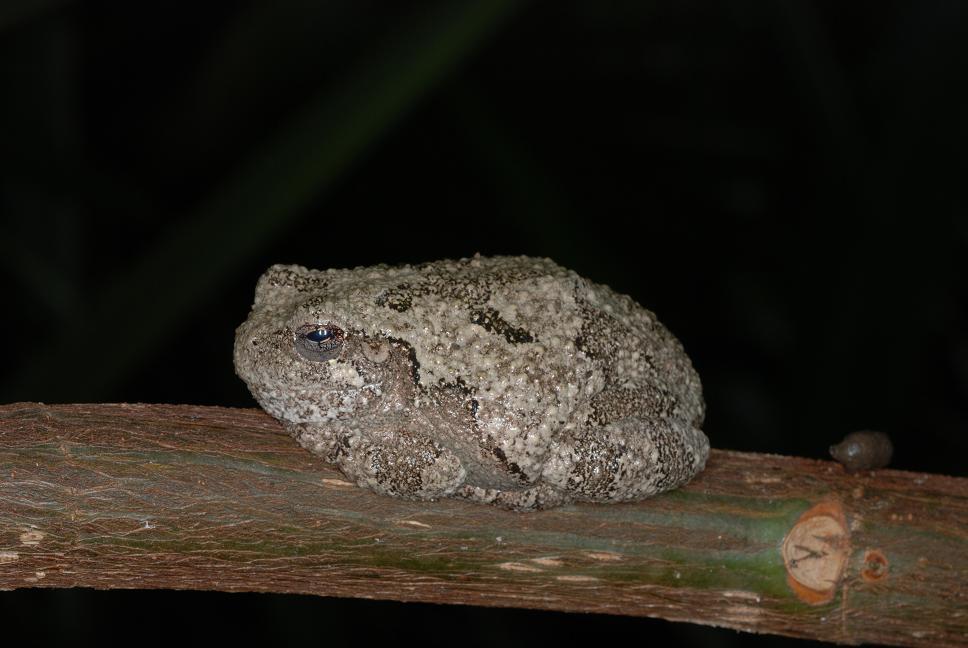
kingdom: Animalia
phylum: Chordata
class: Amphibia
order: Anura
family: Hylidae
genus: Dryophytes
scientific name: Dryophytes versicolor
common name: Gray treefrog
